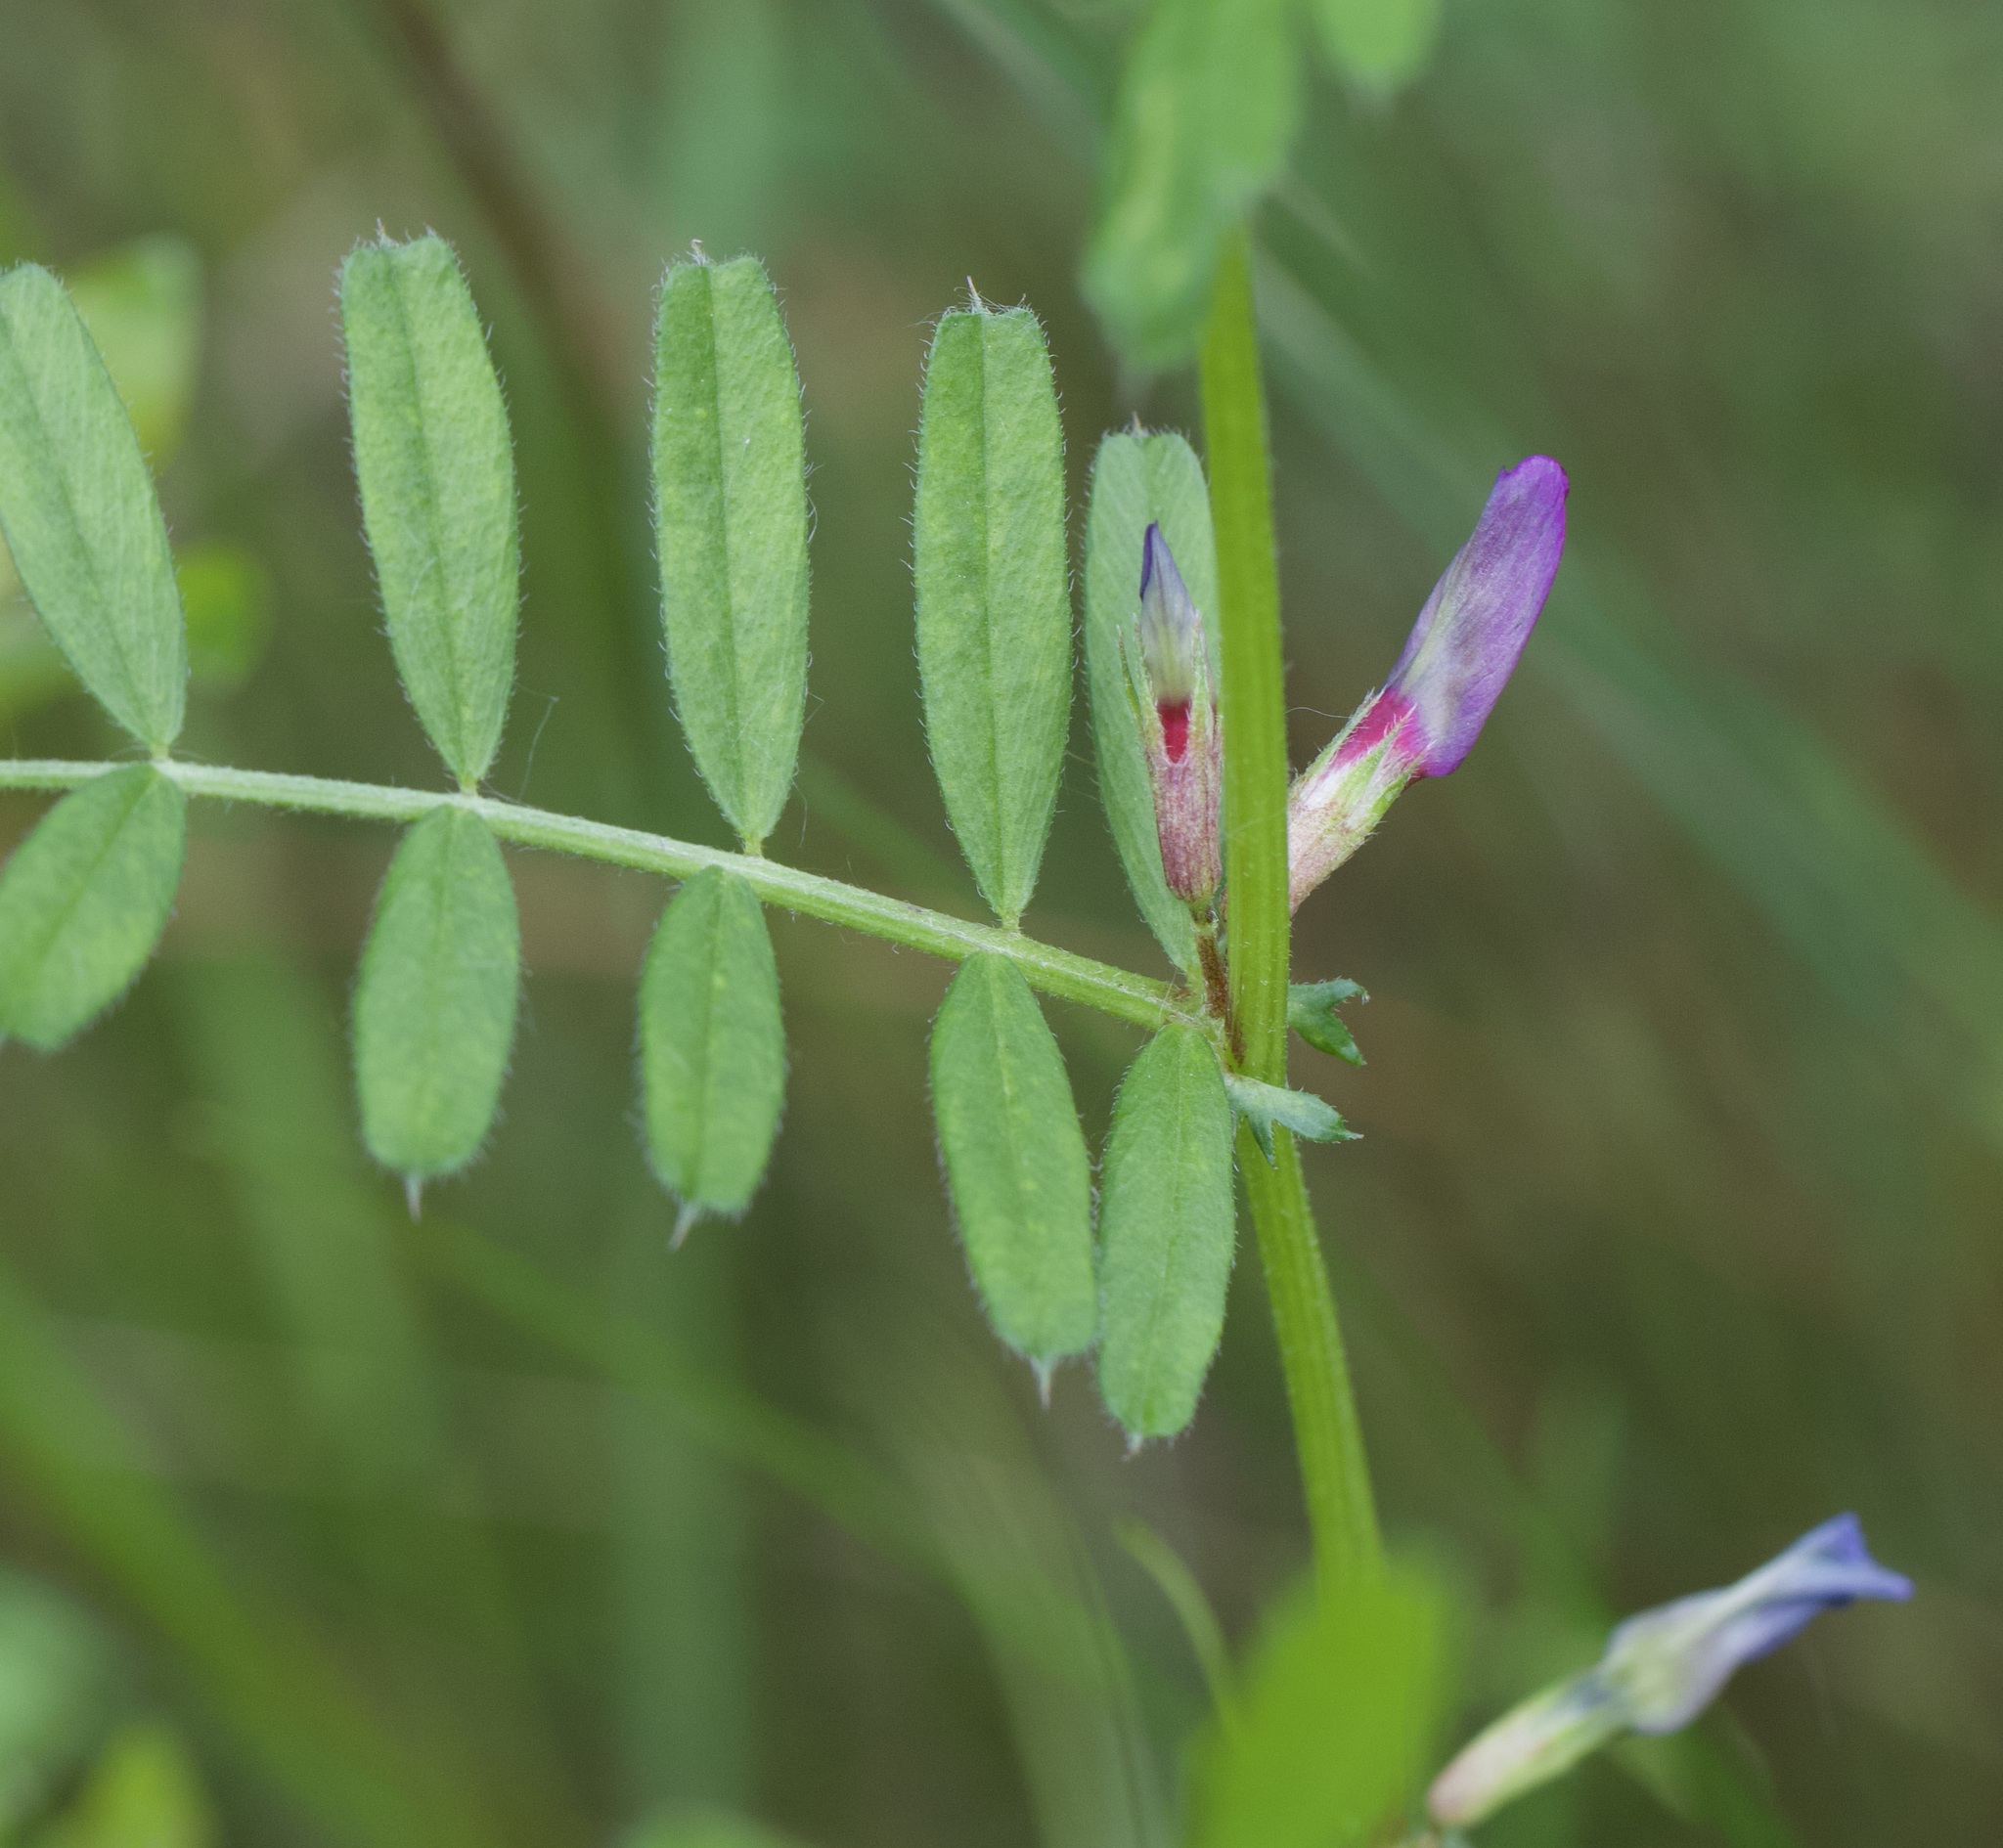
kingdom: Plantae
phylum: Tracheophyta
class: Magnoliopsida
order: Fabales
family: Fabaceae
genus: Vicia
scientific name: Vicia sativa
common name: Garden vetch
